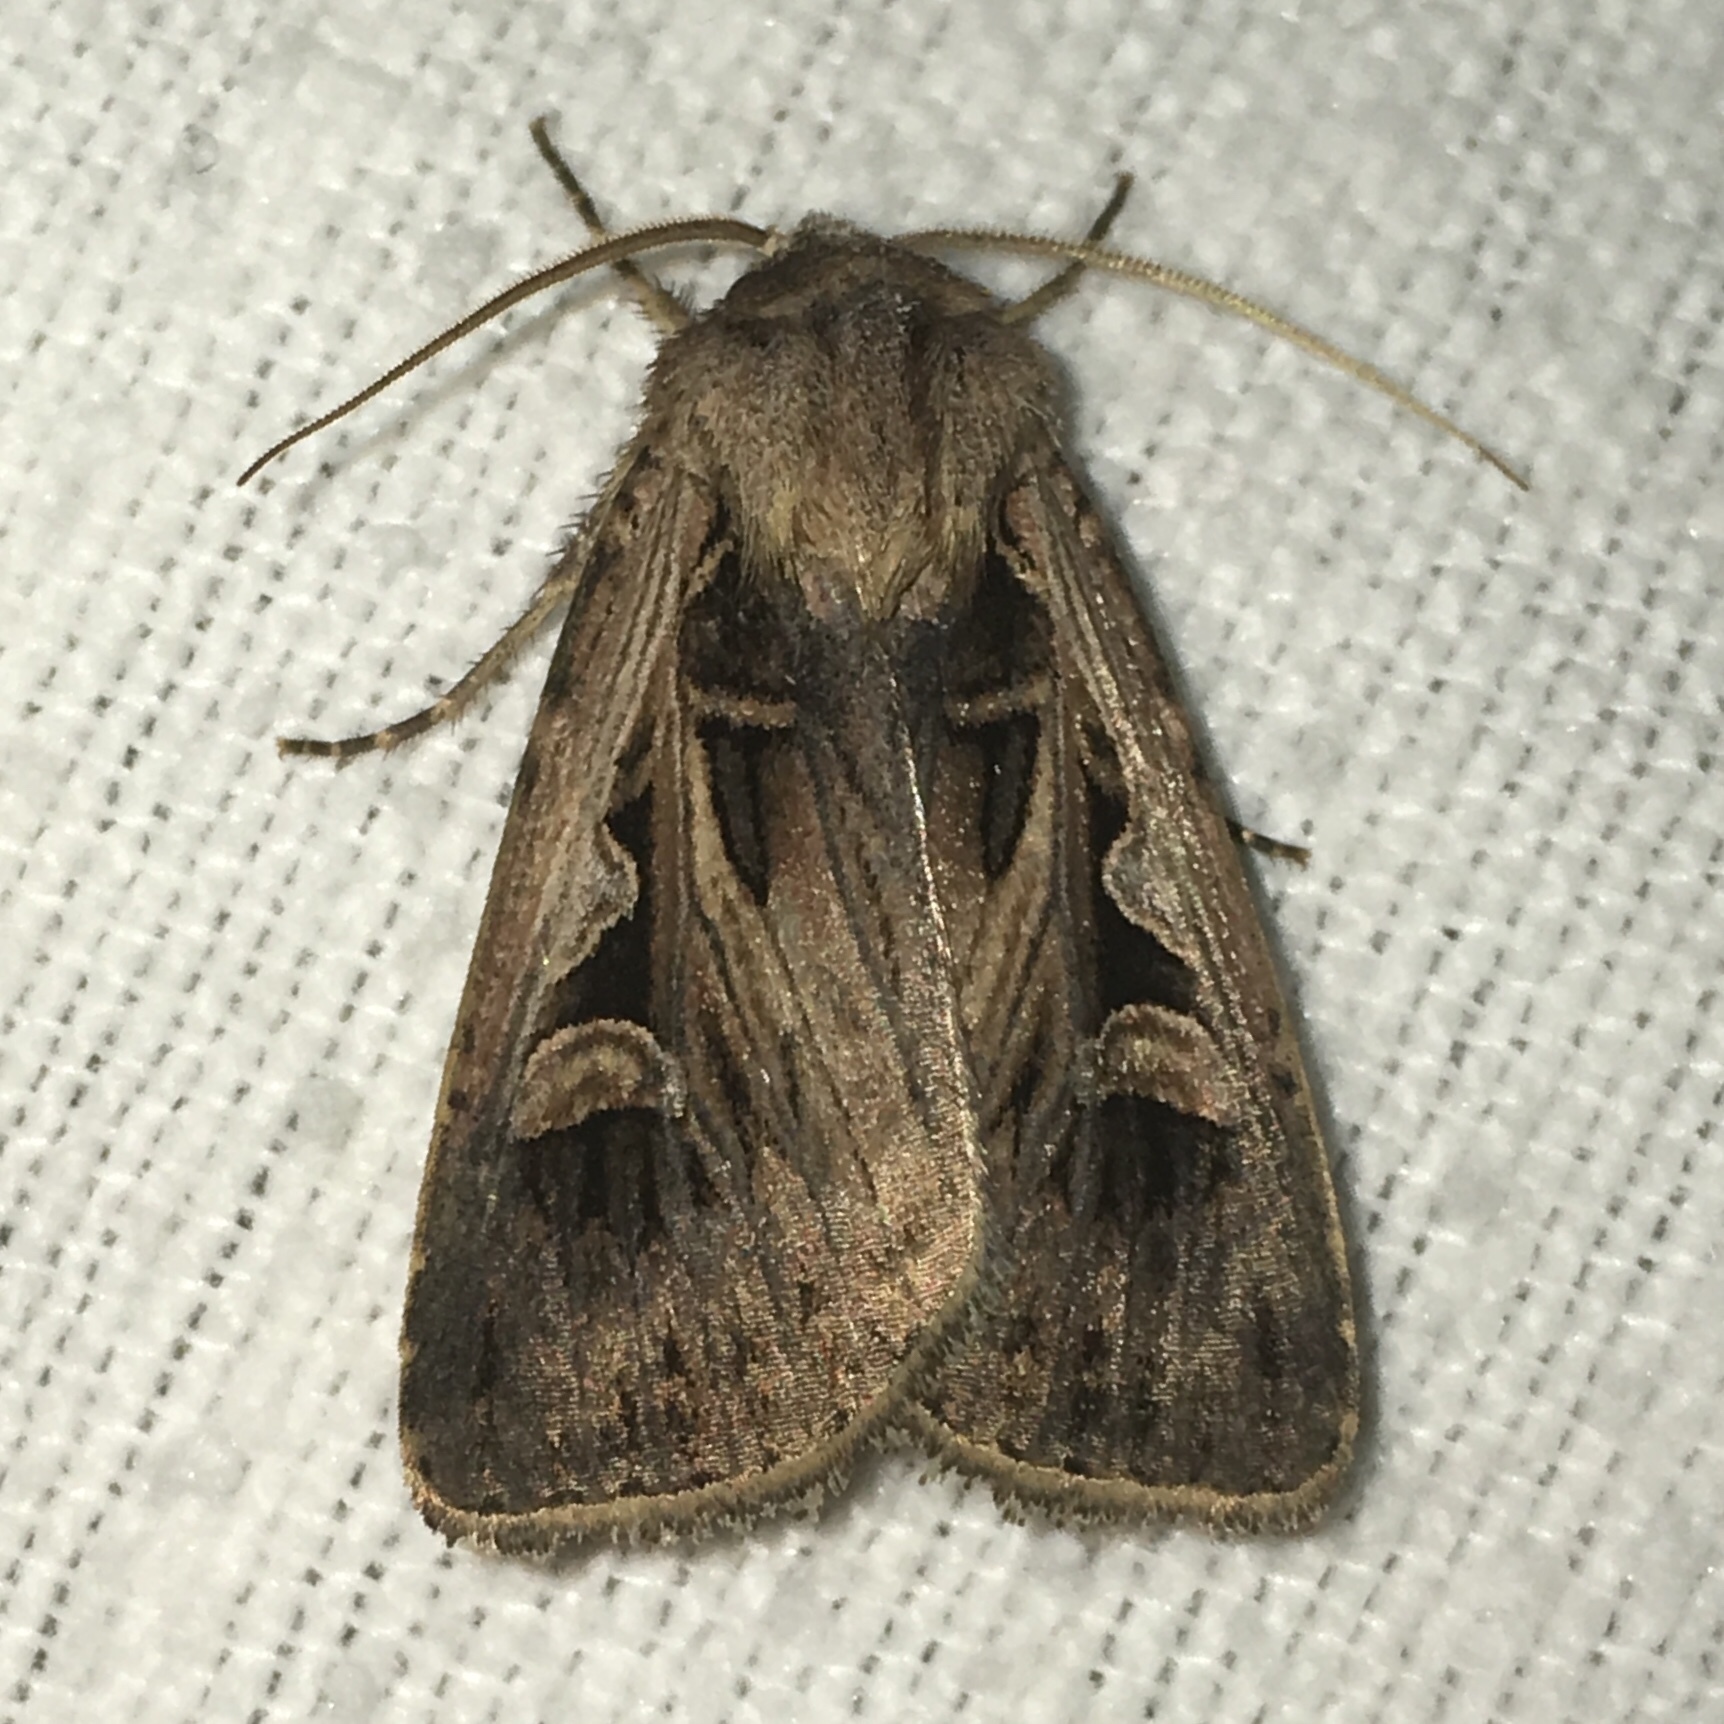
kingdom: Animalia
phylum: Arthropoda
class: Insecta
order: Lepidoptera
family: Noctuidae
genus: Feltia
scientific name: Feltia tricosa
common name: Confused dart moth
